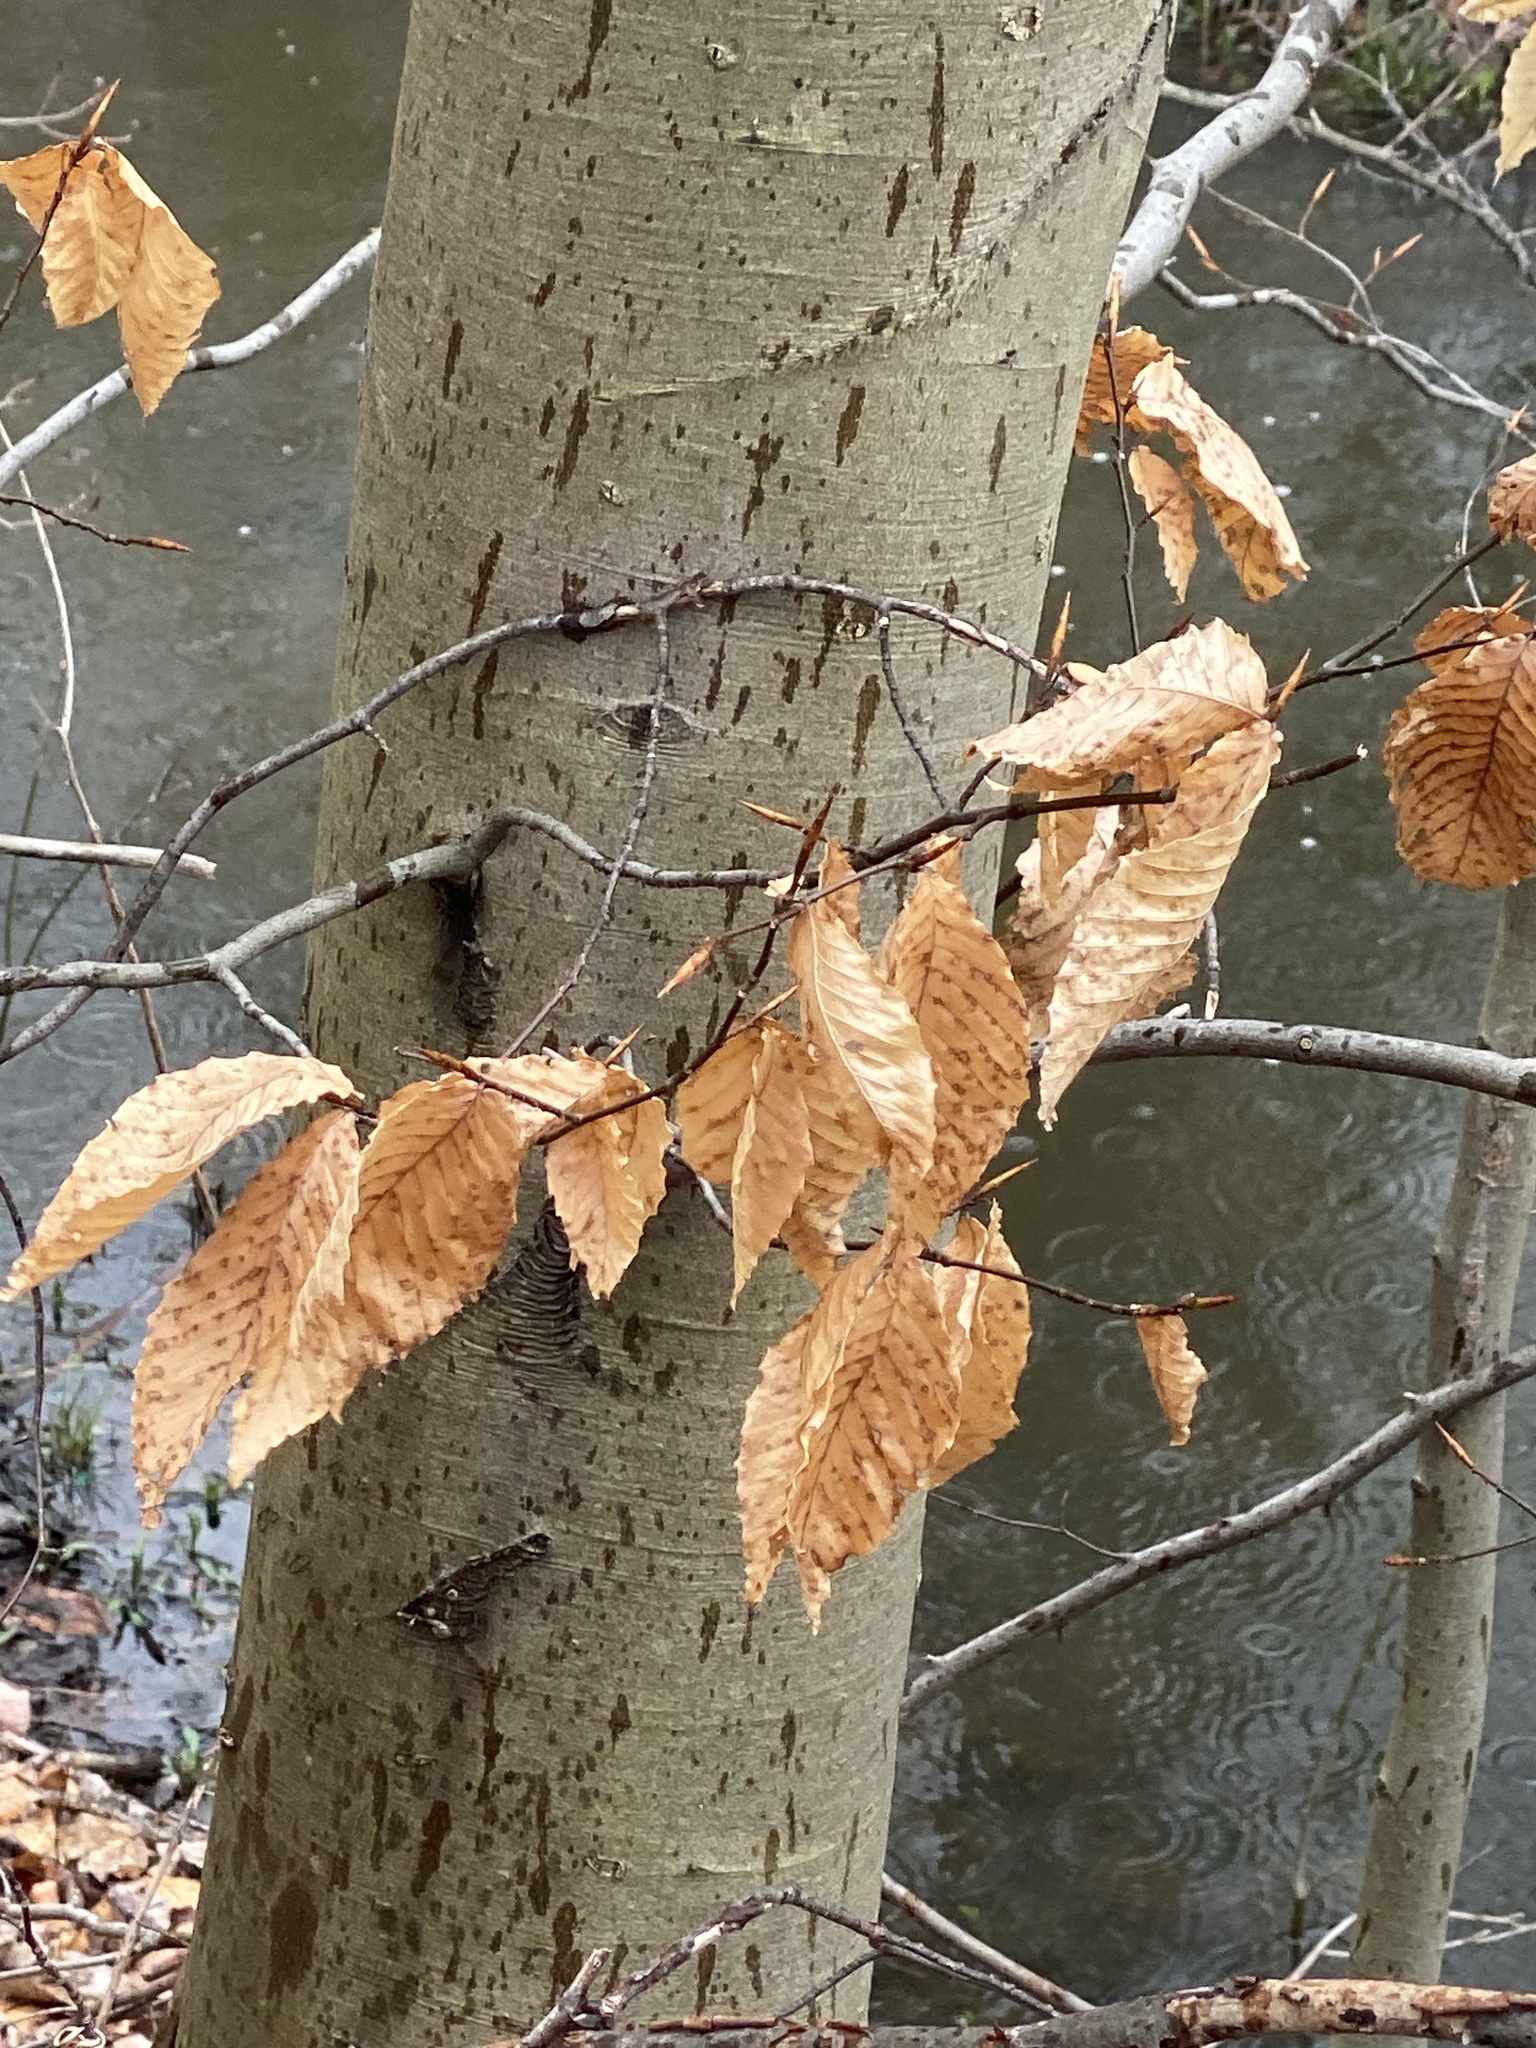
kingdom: Plantae
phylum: Tracheophyta
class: Magnoliopsida
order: Fagales
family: Fagaceae
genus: Fagus
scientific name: Fagus grandifolia
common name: American beech
